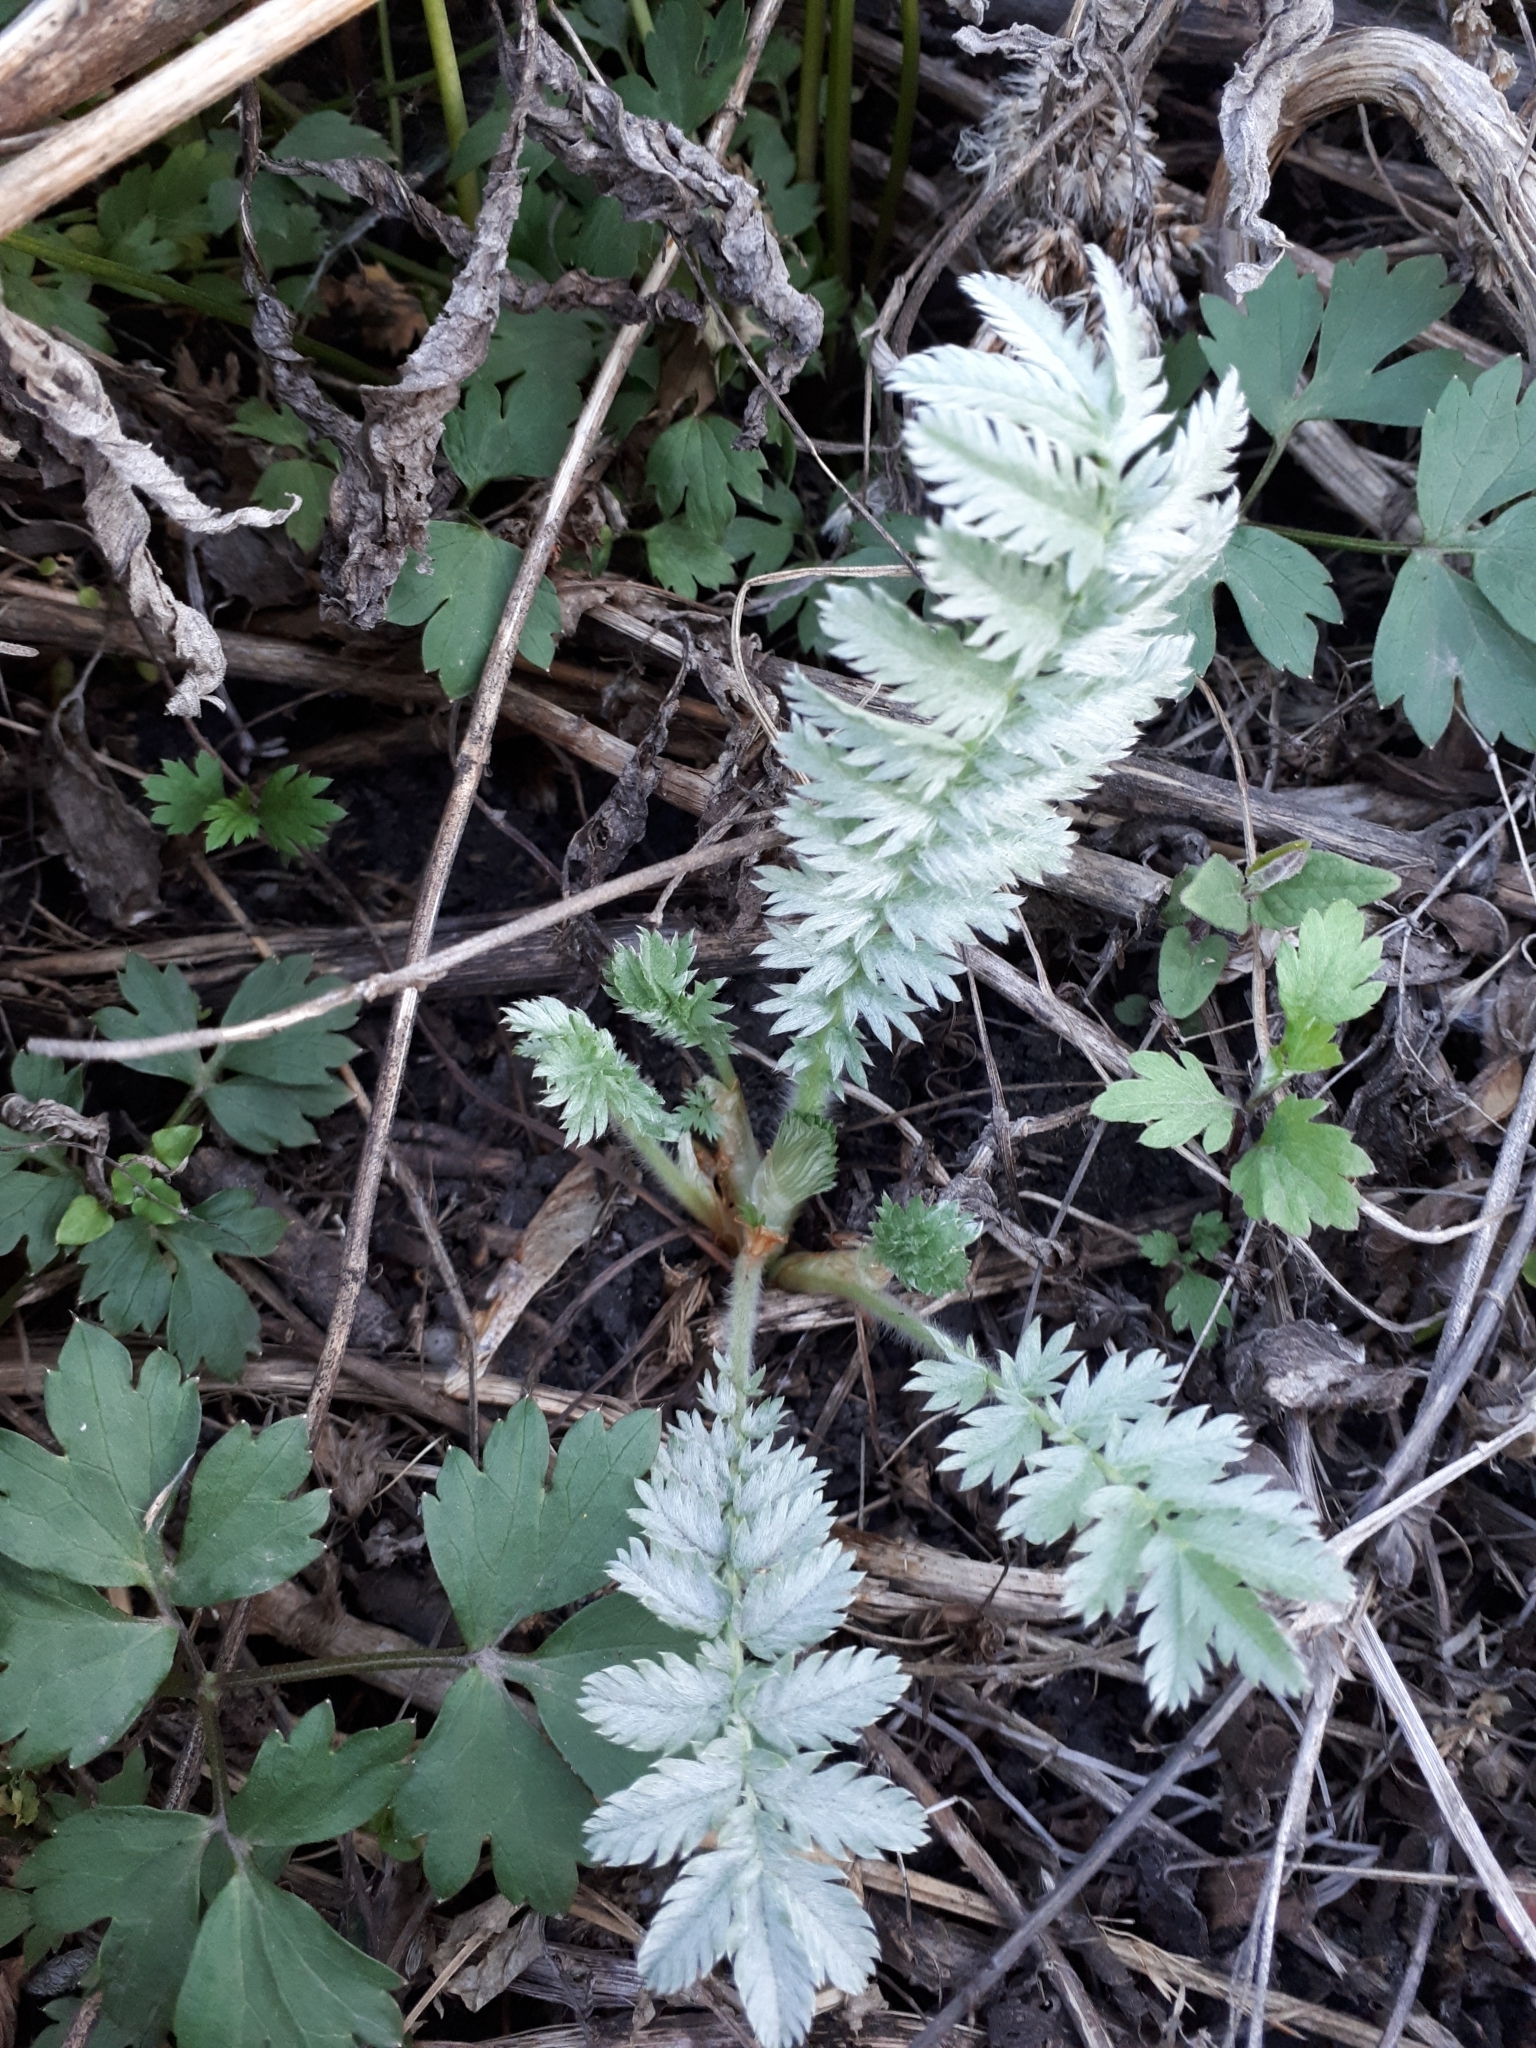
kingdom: Plantae
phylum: Tracheophyta
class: Magnoliopsida
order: Rosales
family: Rosaceae
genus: Argentina
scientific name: Argentina anserina
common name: Common silverweed
